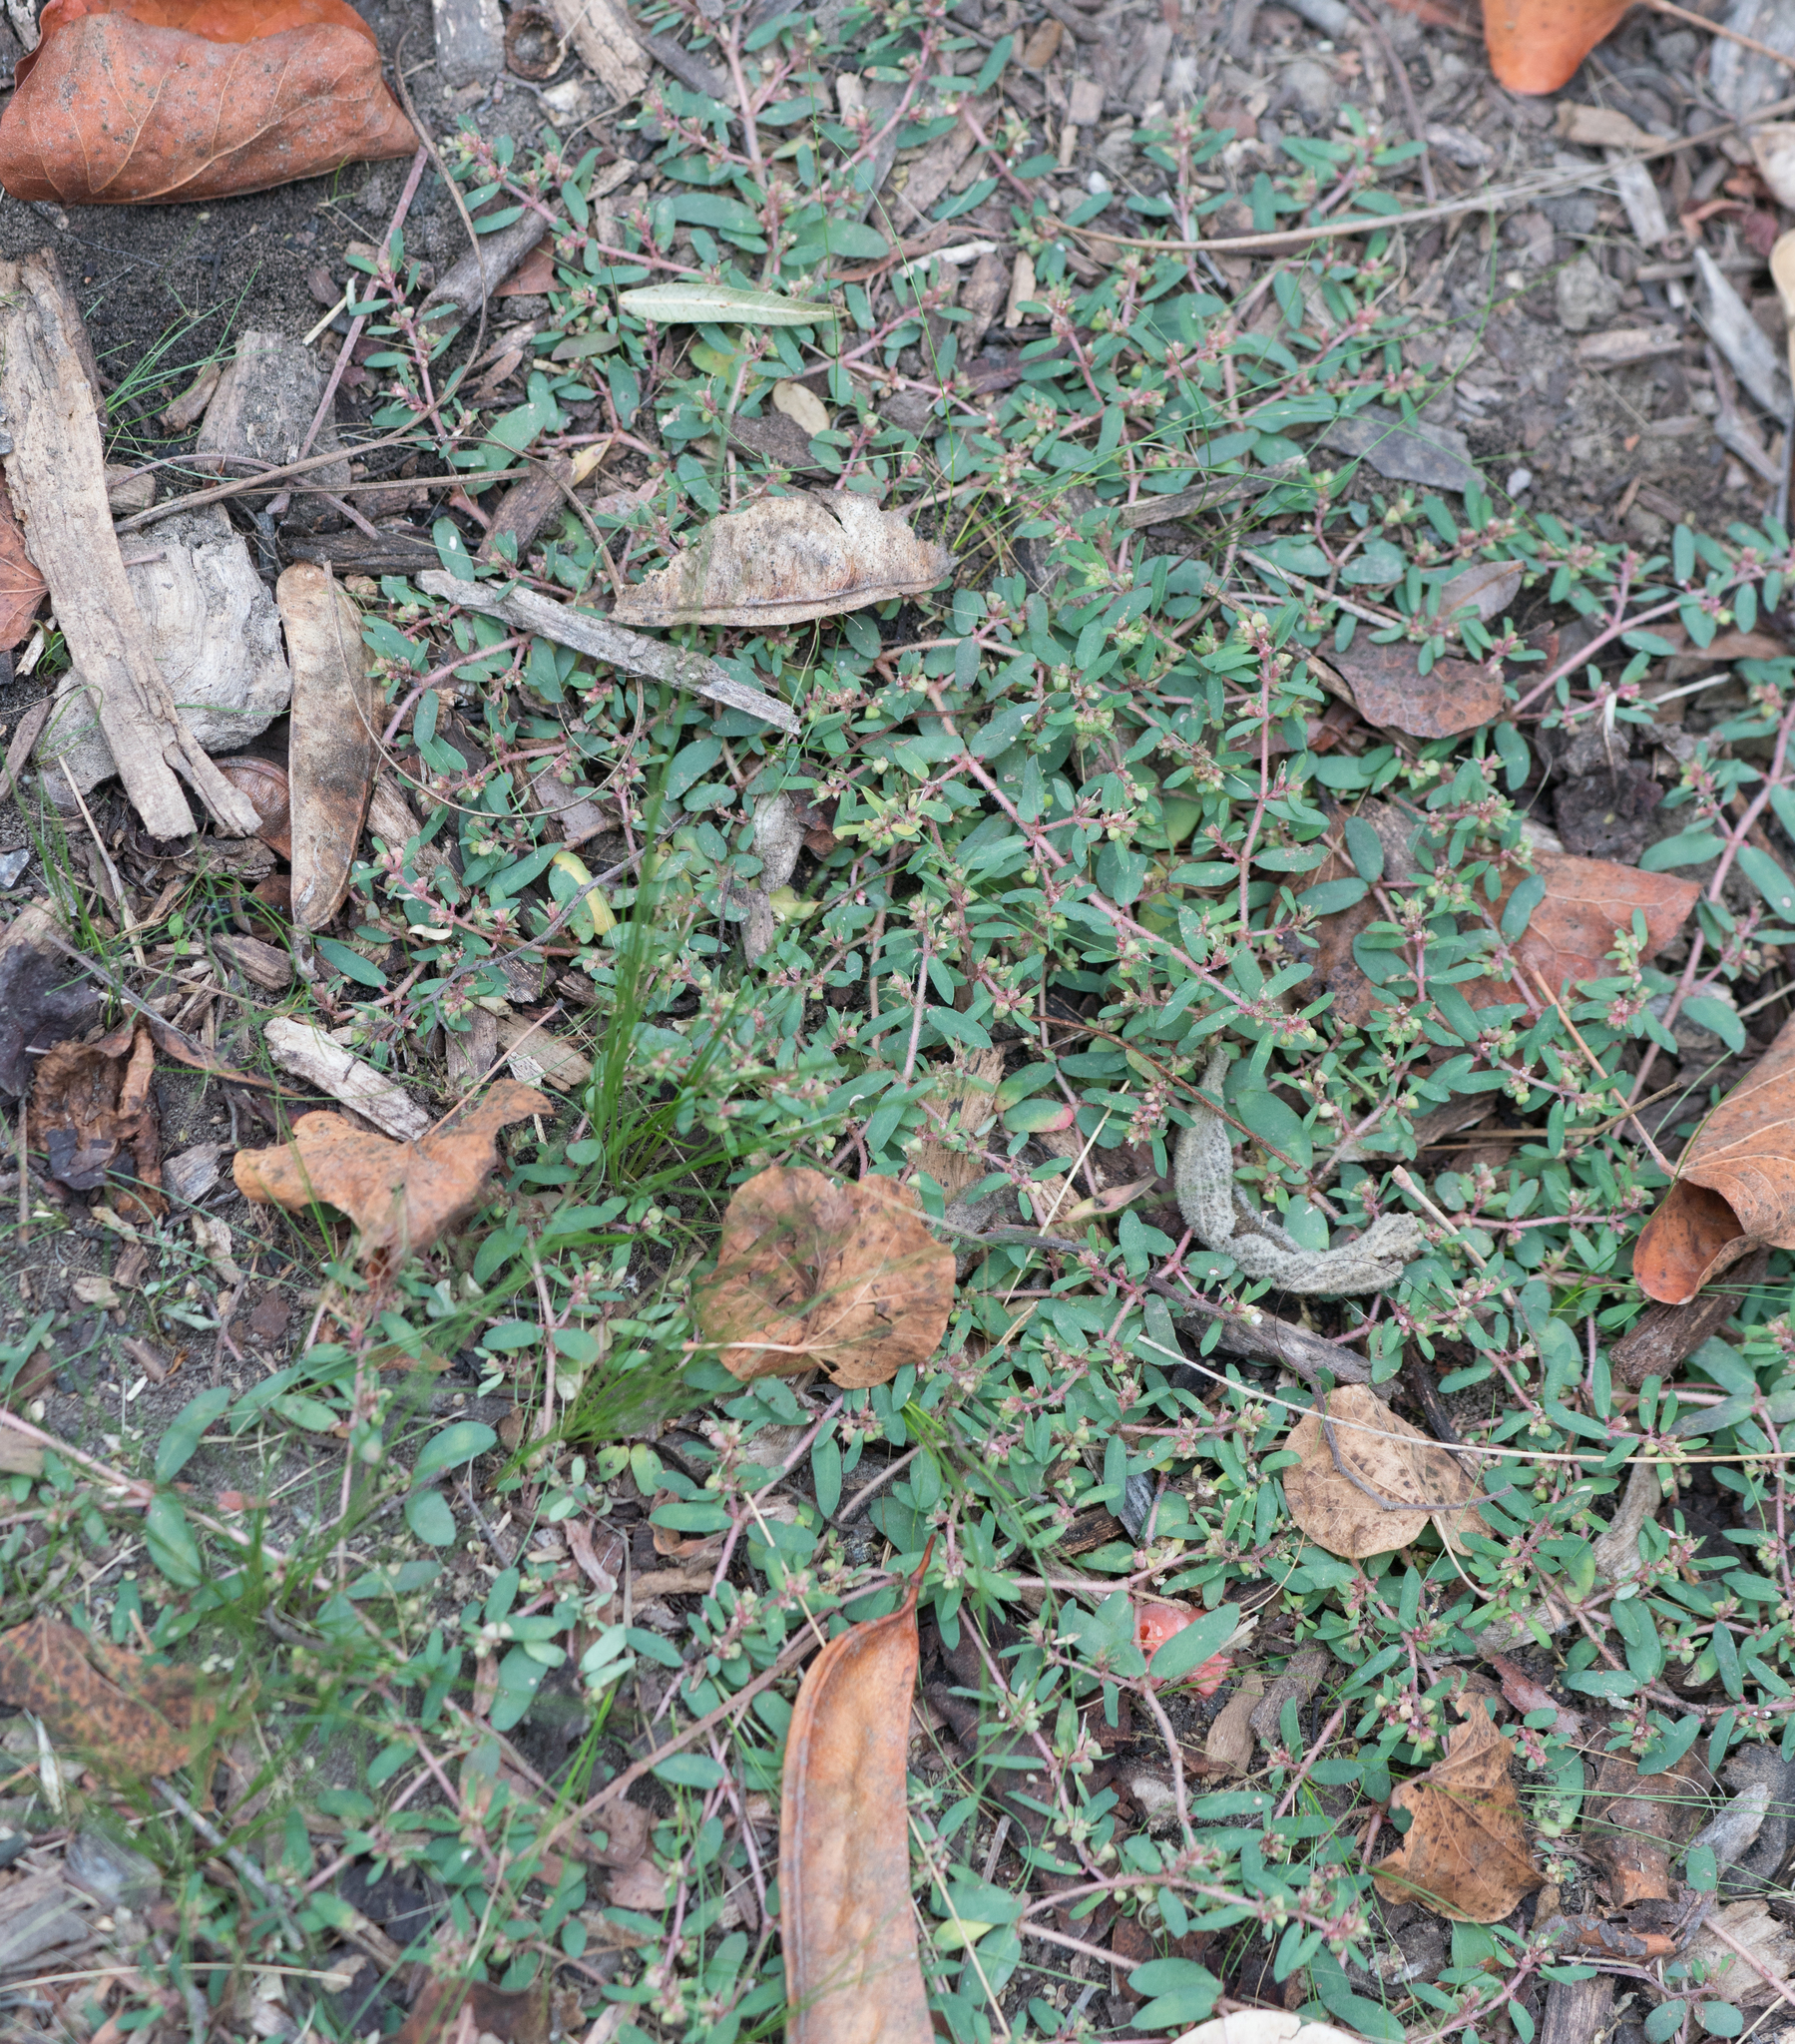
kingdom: Plantae
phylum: Tracheophyta
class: Magnoliopsida
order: Malpighiales
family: Euphorbiaceae
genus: Euphorbia
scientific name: Euphorbia maculata
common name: Spotted spurge
